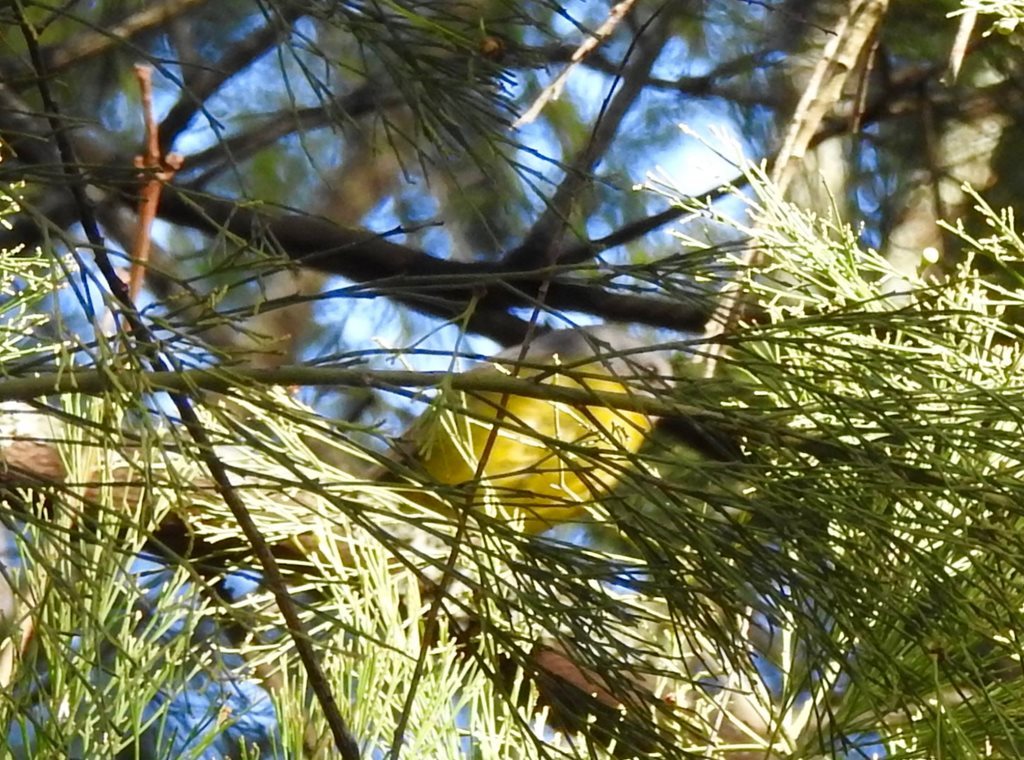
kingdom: Animalia
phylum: Chordata
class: Aves
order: Passeriformes
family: Petroicidae
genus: Eopsaltria
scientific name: Eopsaltria australis
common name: Eastern yellow robin
